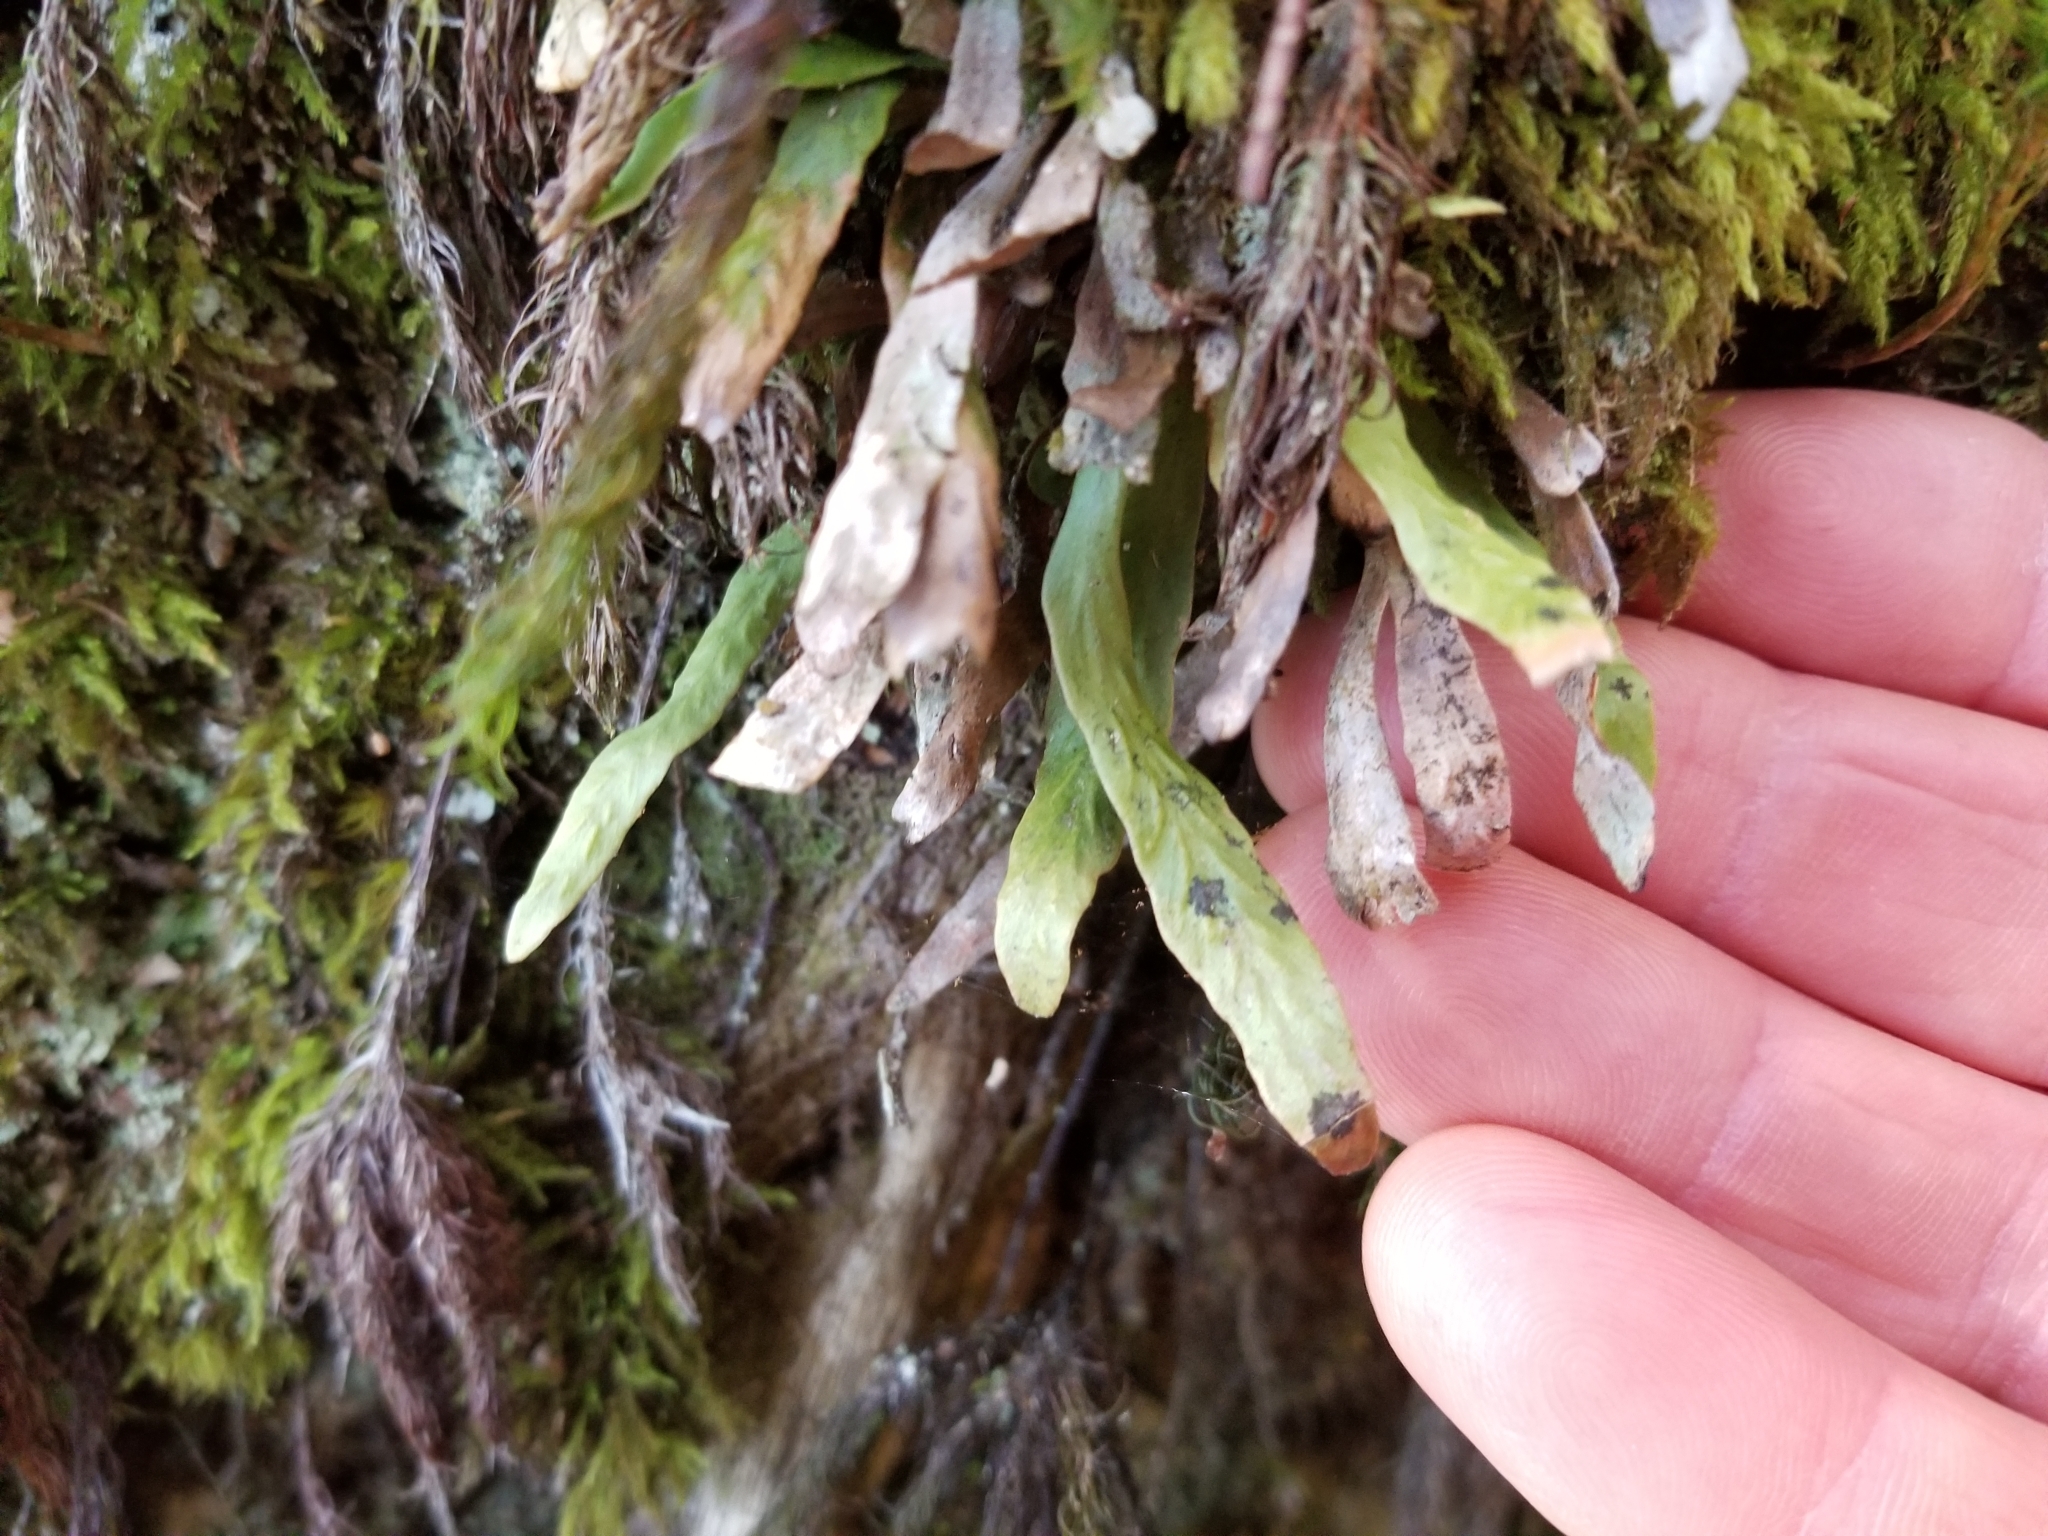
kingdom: Plantae
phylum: Tracheophyta
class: Polypodiopsida
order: Polypodiales
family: Polypodiaceae
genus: Notogrammitis
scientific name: Notogrammitis billardierei
